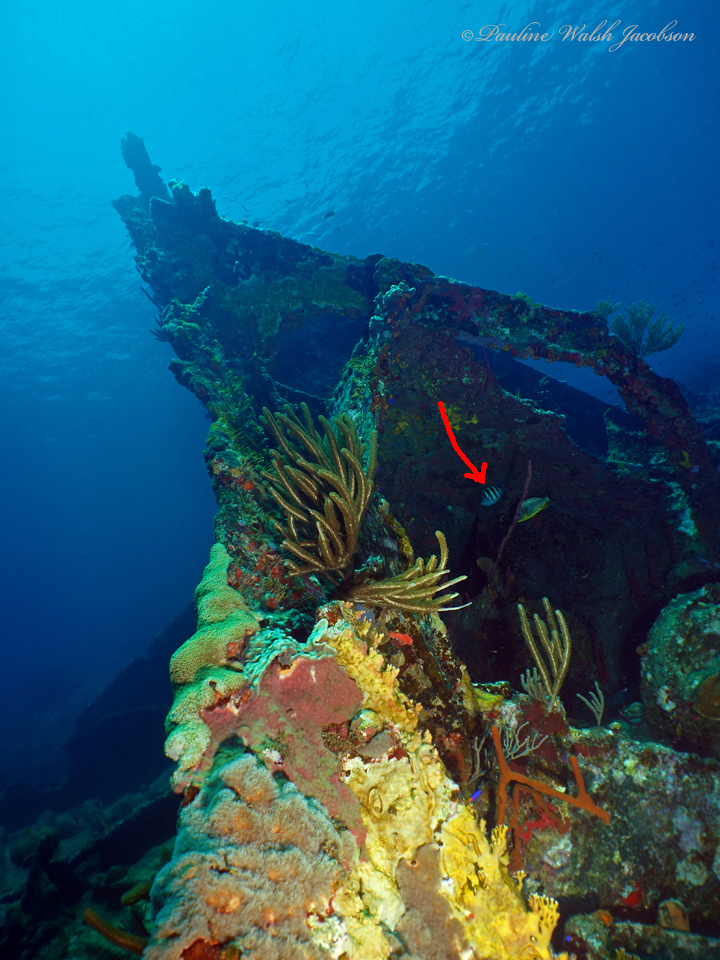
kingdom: Animalia
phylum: Chordata
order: Perciformes
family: Pomacentridae
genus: Abudefduf
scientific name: Abudefduf saxatilis
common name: Sergeant major
